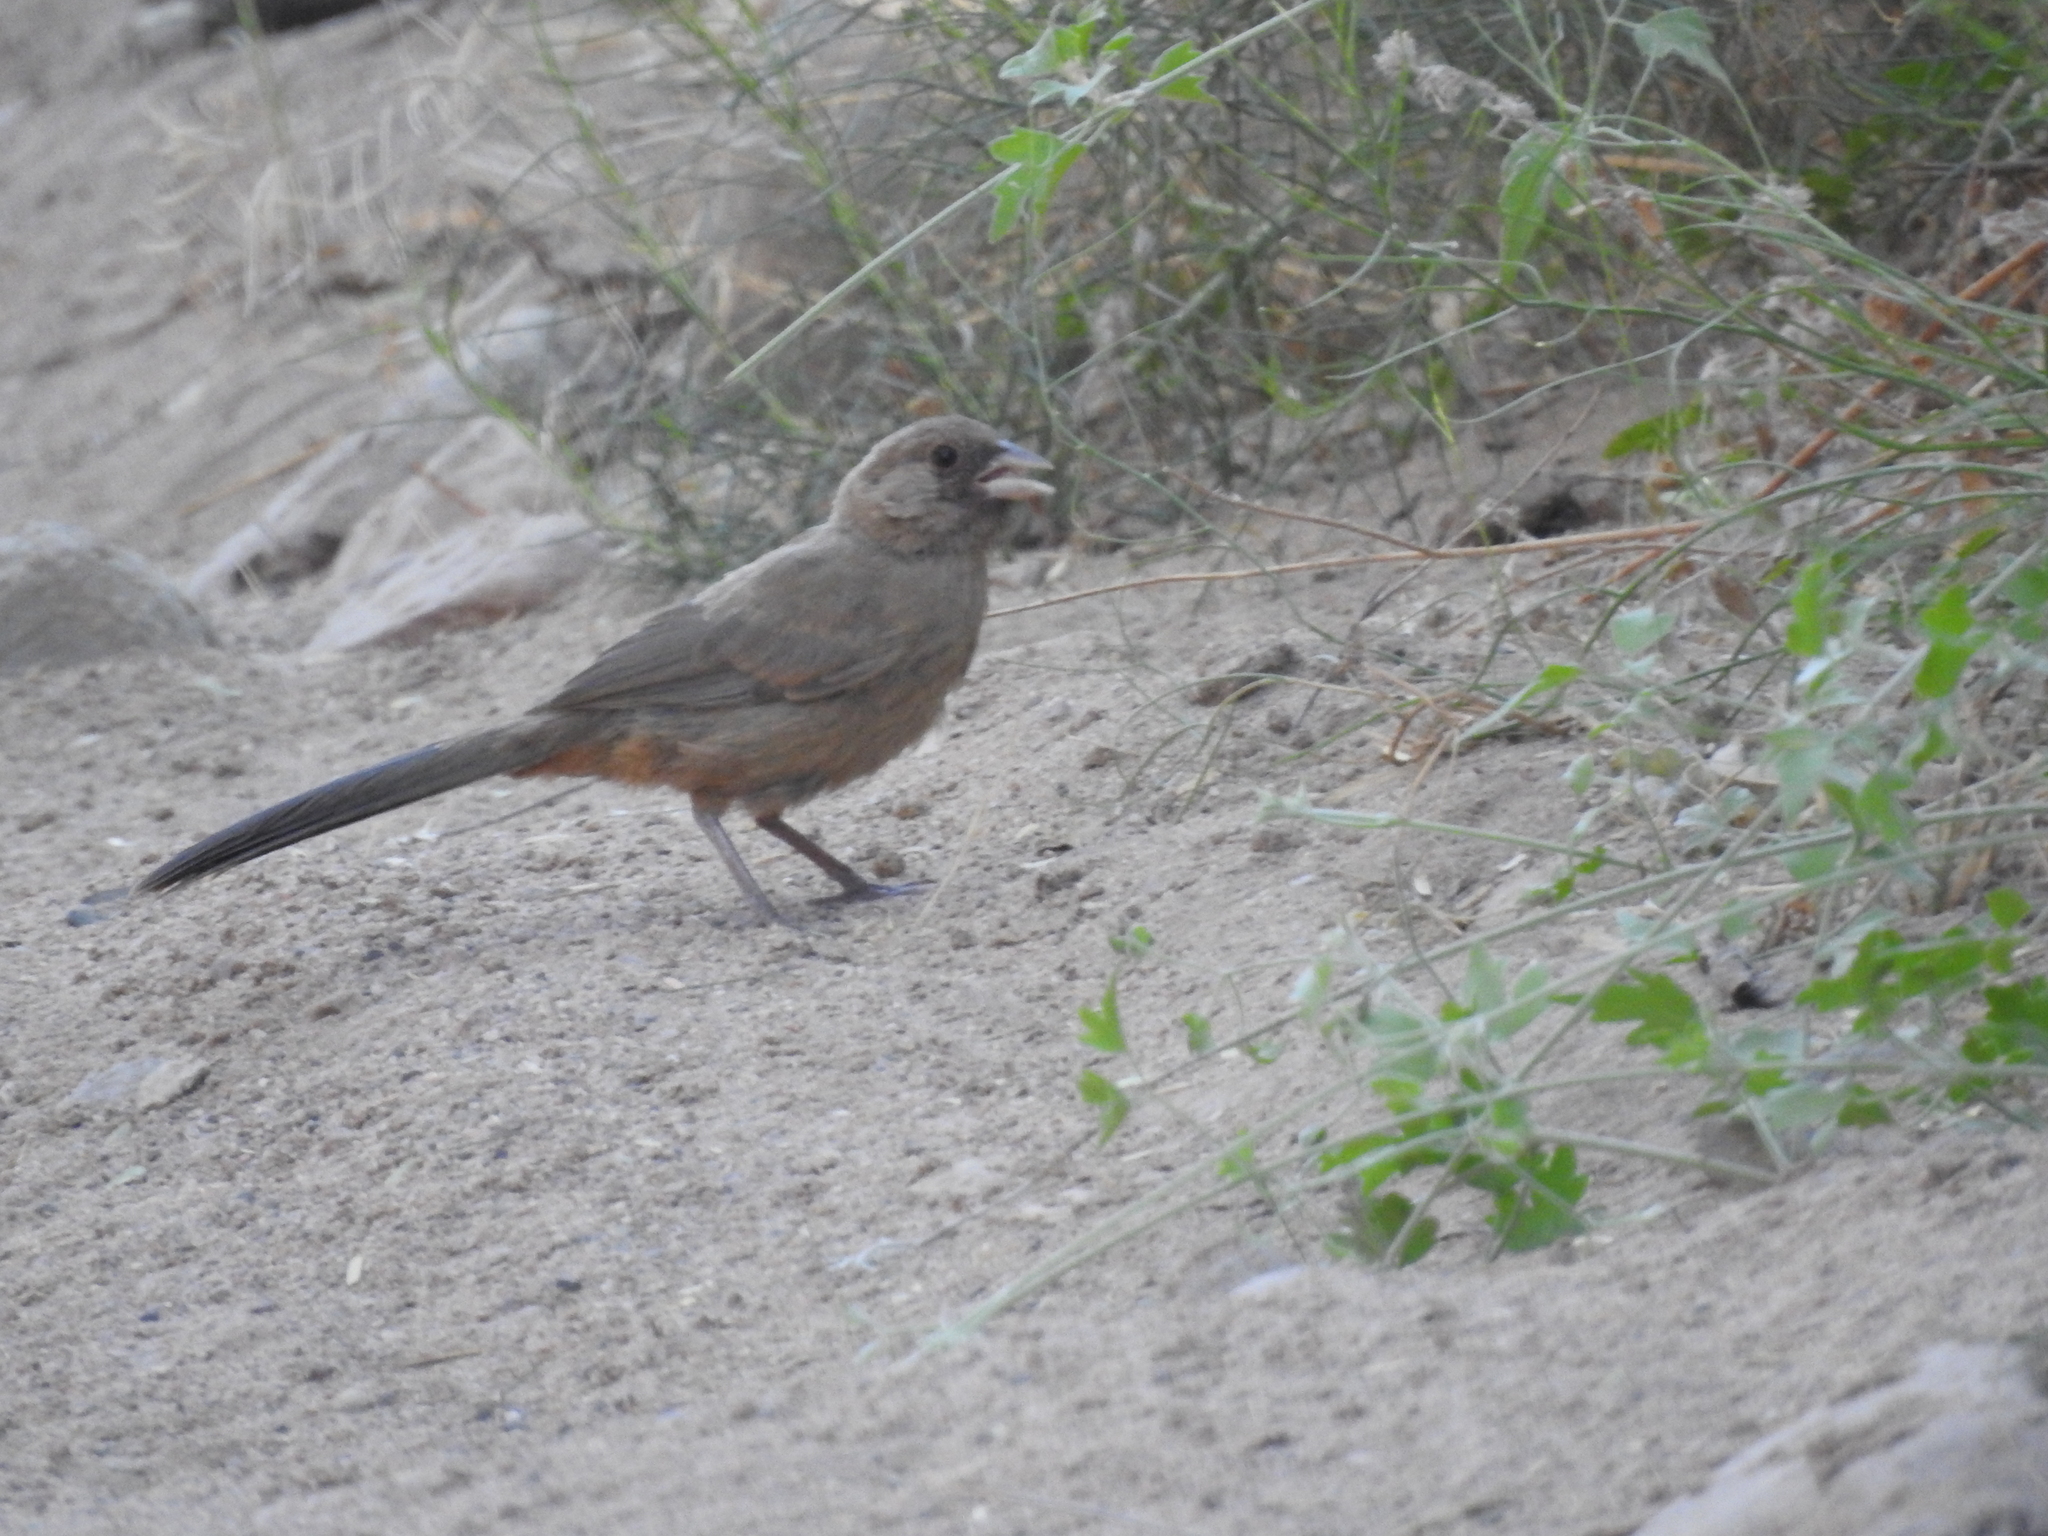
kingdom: Animalia
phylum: Chordata
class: Aves
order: Passeriformes
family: Passerellidae
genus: Melozone
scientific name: Melozone aberti
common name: Abert's towhee
